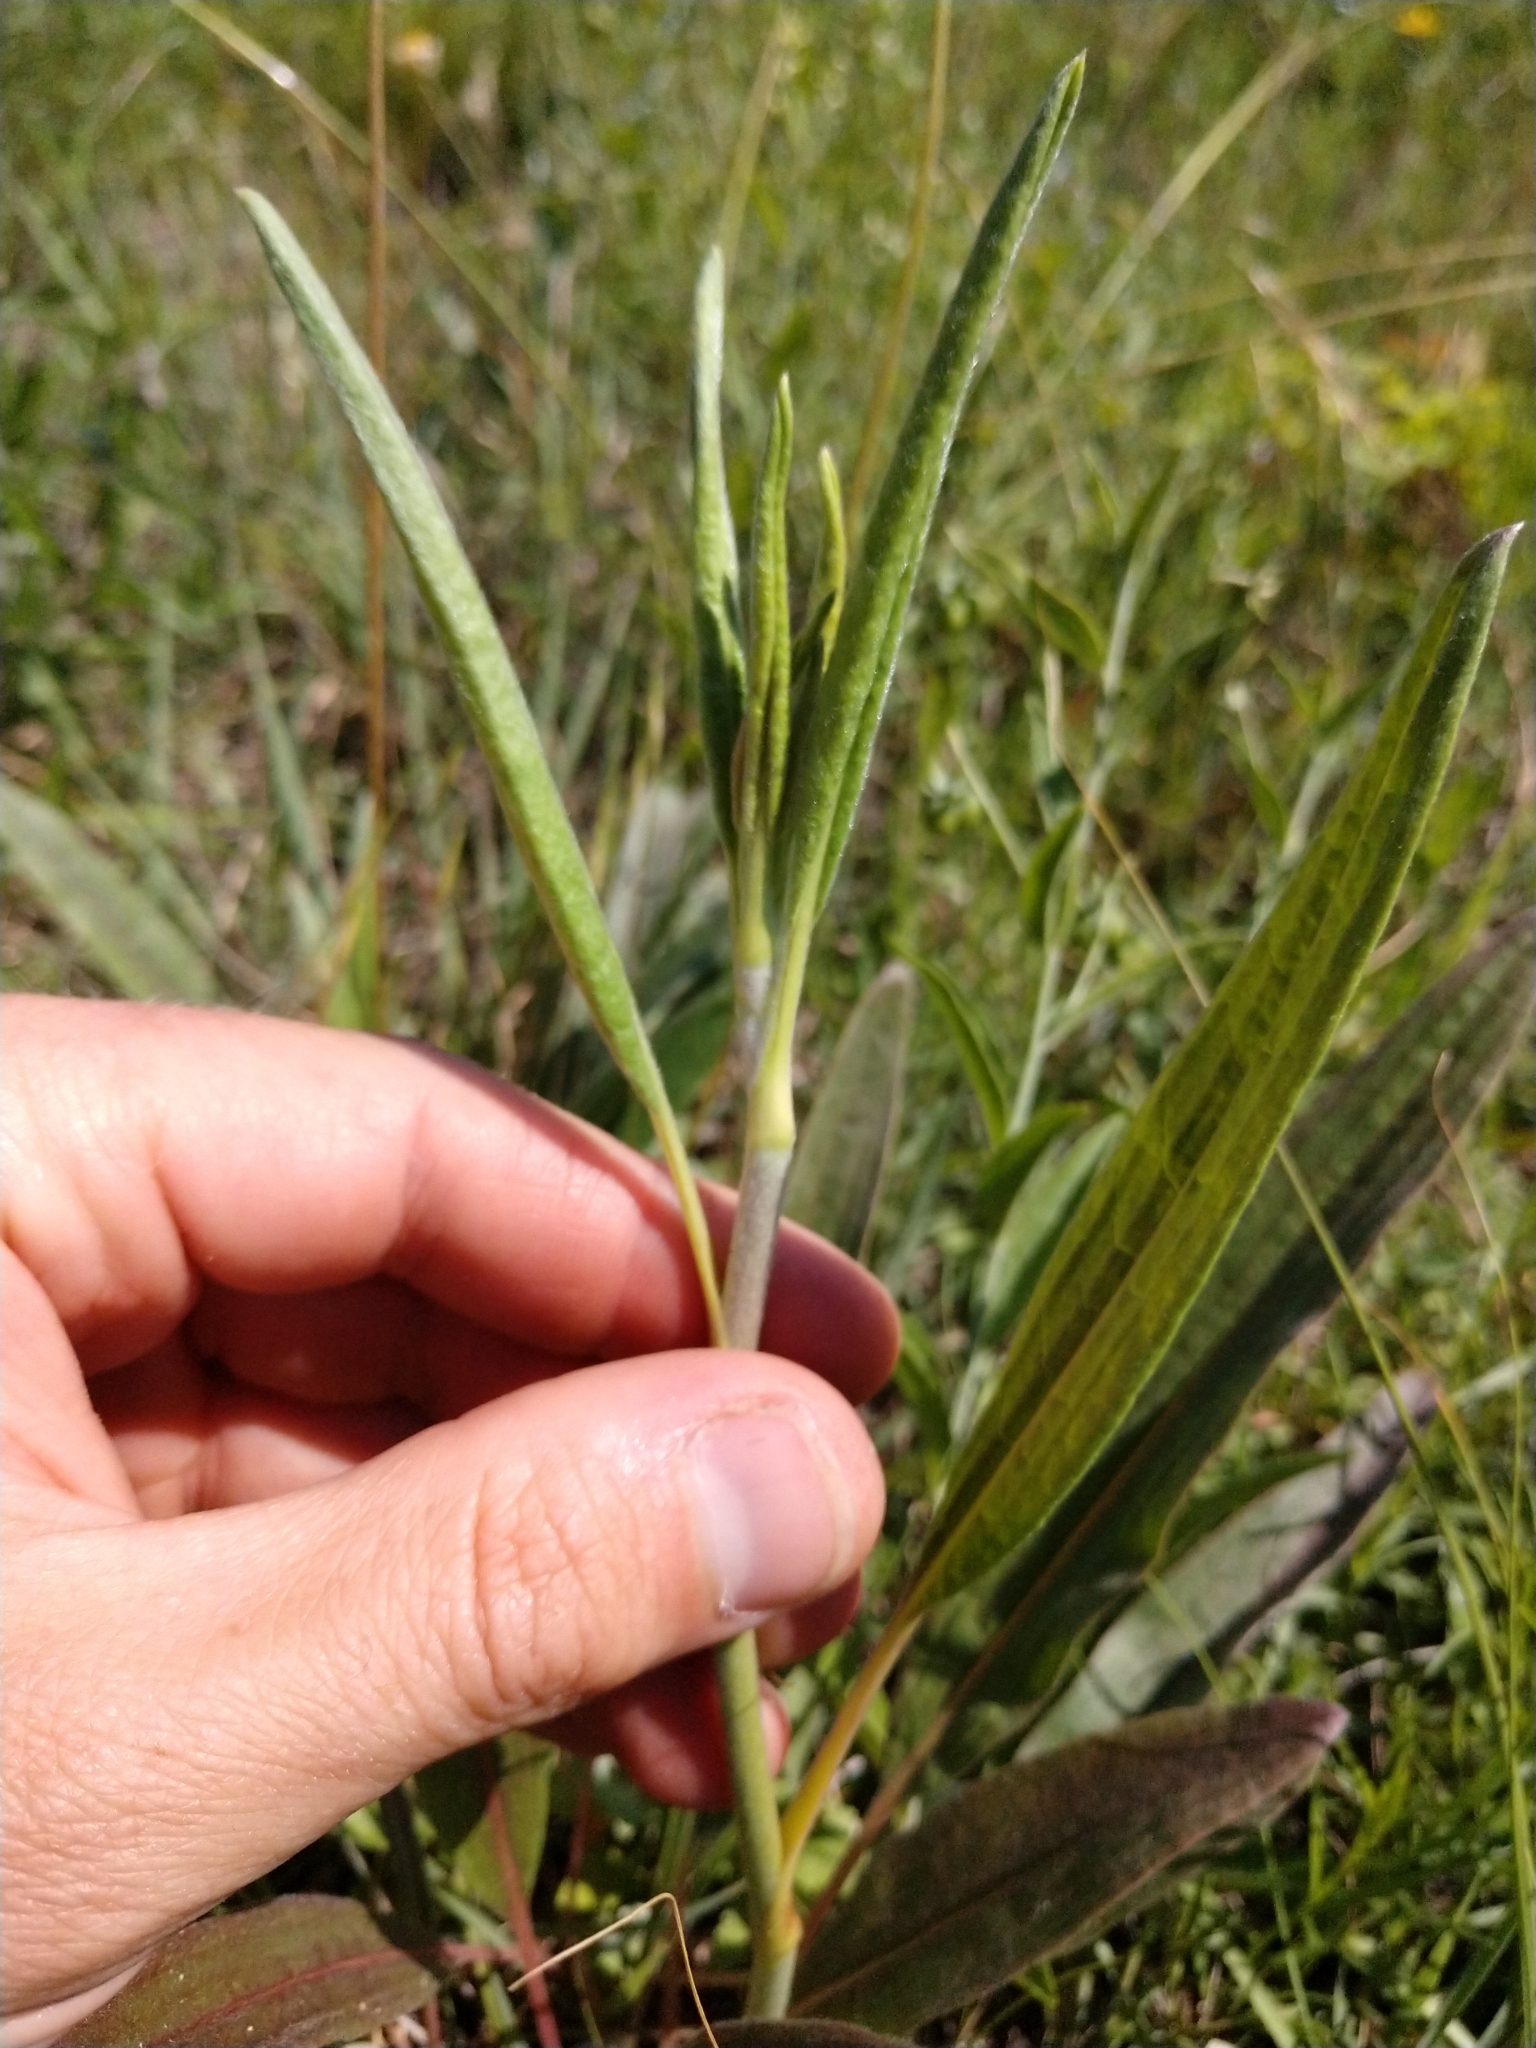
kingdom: Plantae
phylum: Tracheophyta
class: Magnoliopsida
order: Caryophyllales
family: Polygonaceae
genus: Eriogonum
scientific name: Eriogonum longifolium
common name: Longleaf wild buckwheat
